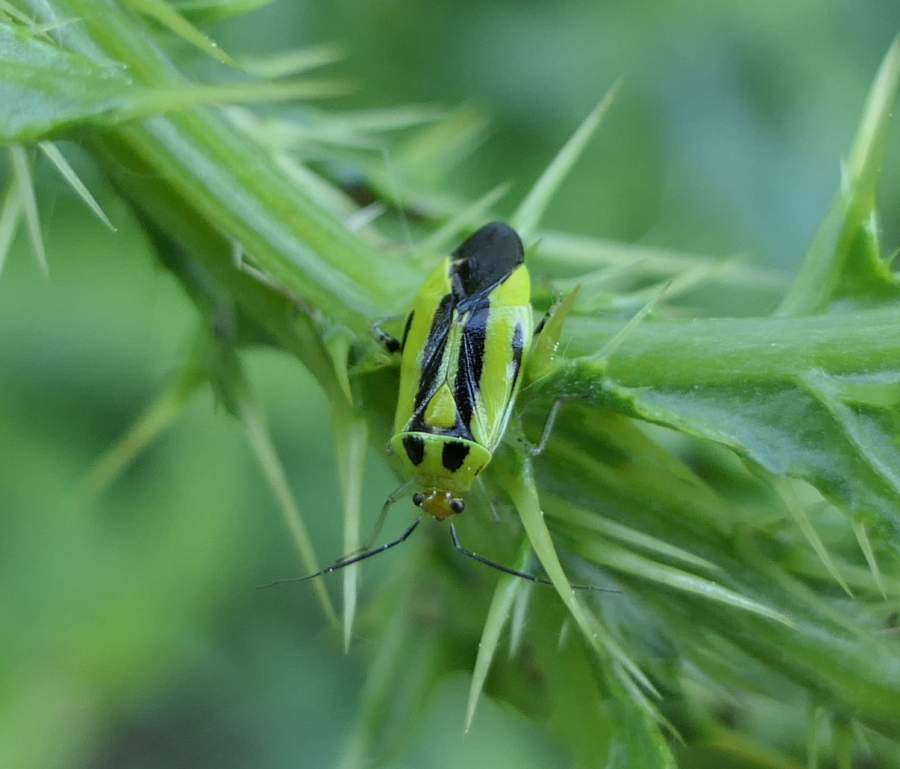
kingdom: Animalia
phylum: Arthropoda
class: Insecta
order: Hemiptera
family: Miridae
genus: Poecilocapsus
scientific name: Poecilocapsus lineatus
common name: Four-lined plant bug
